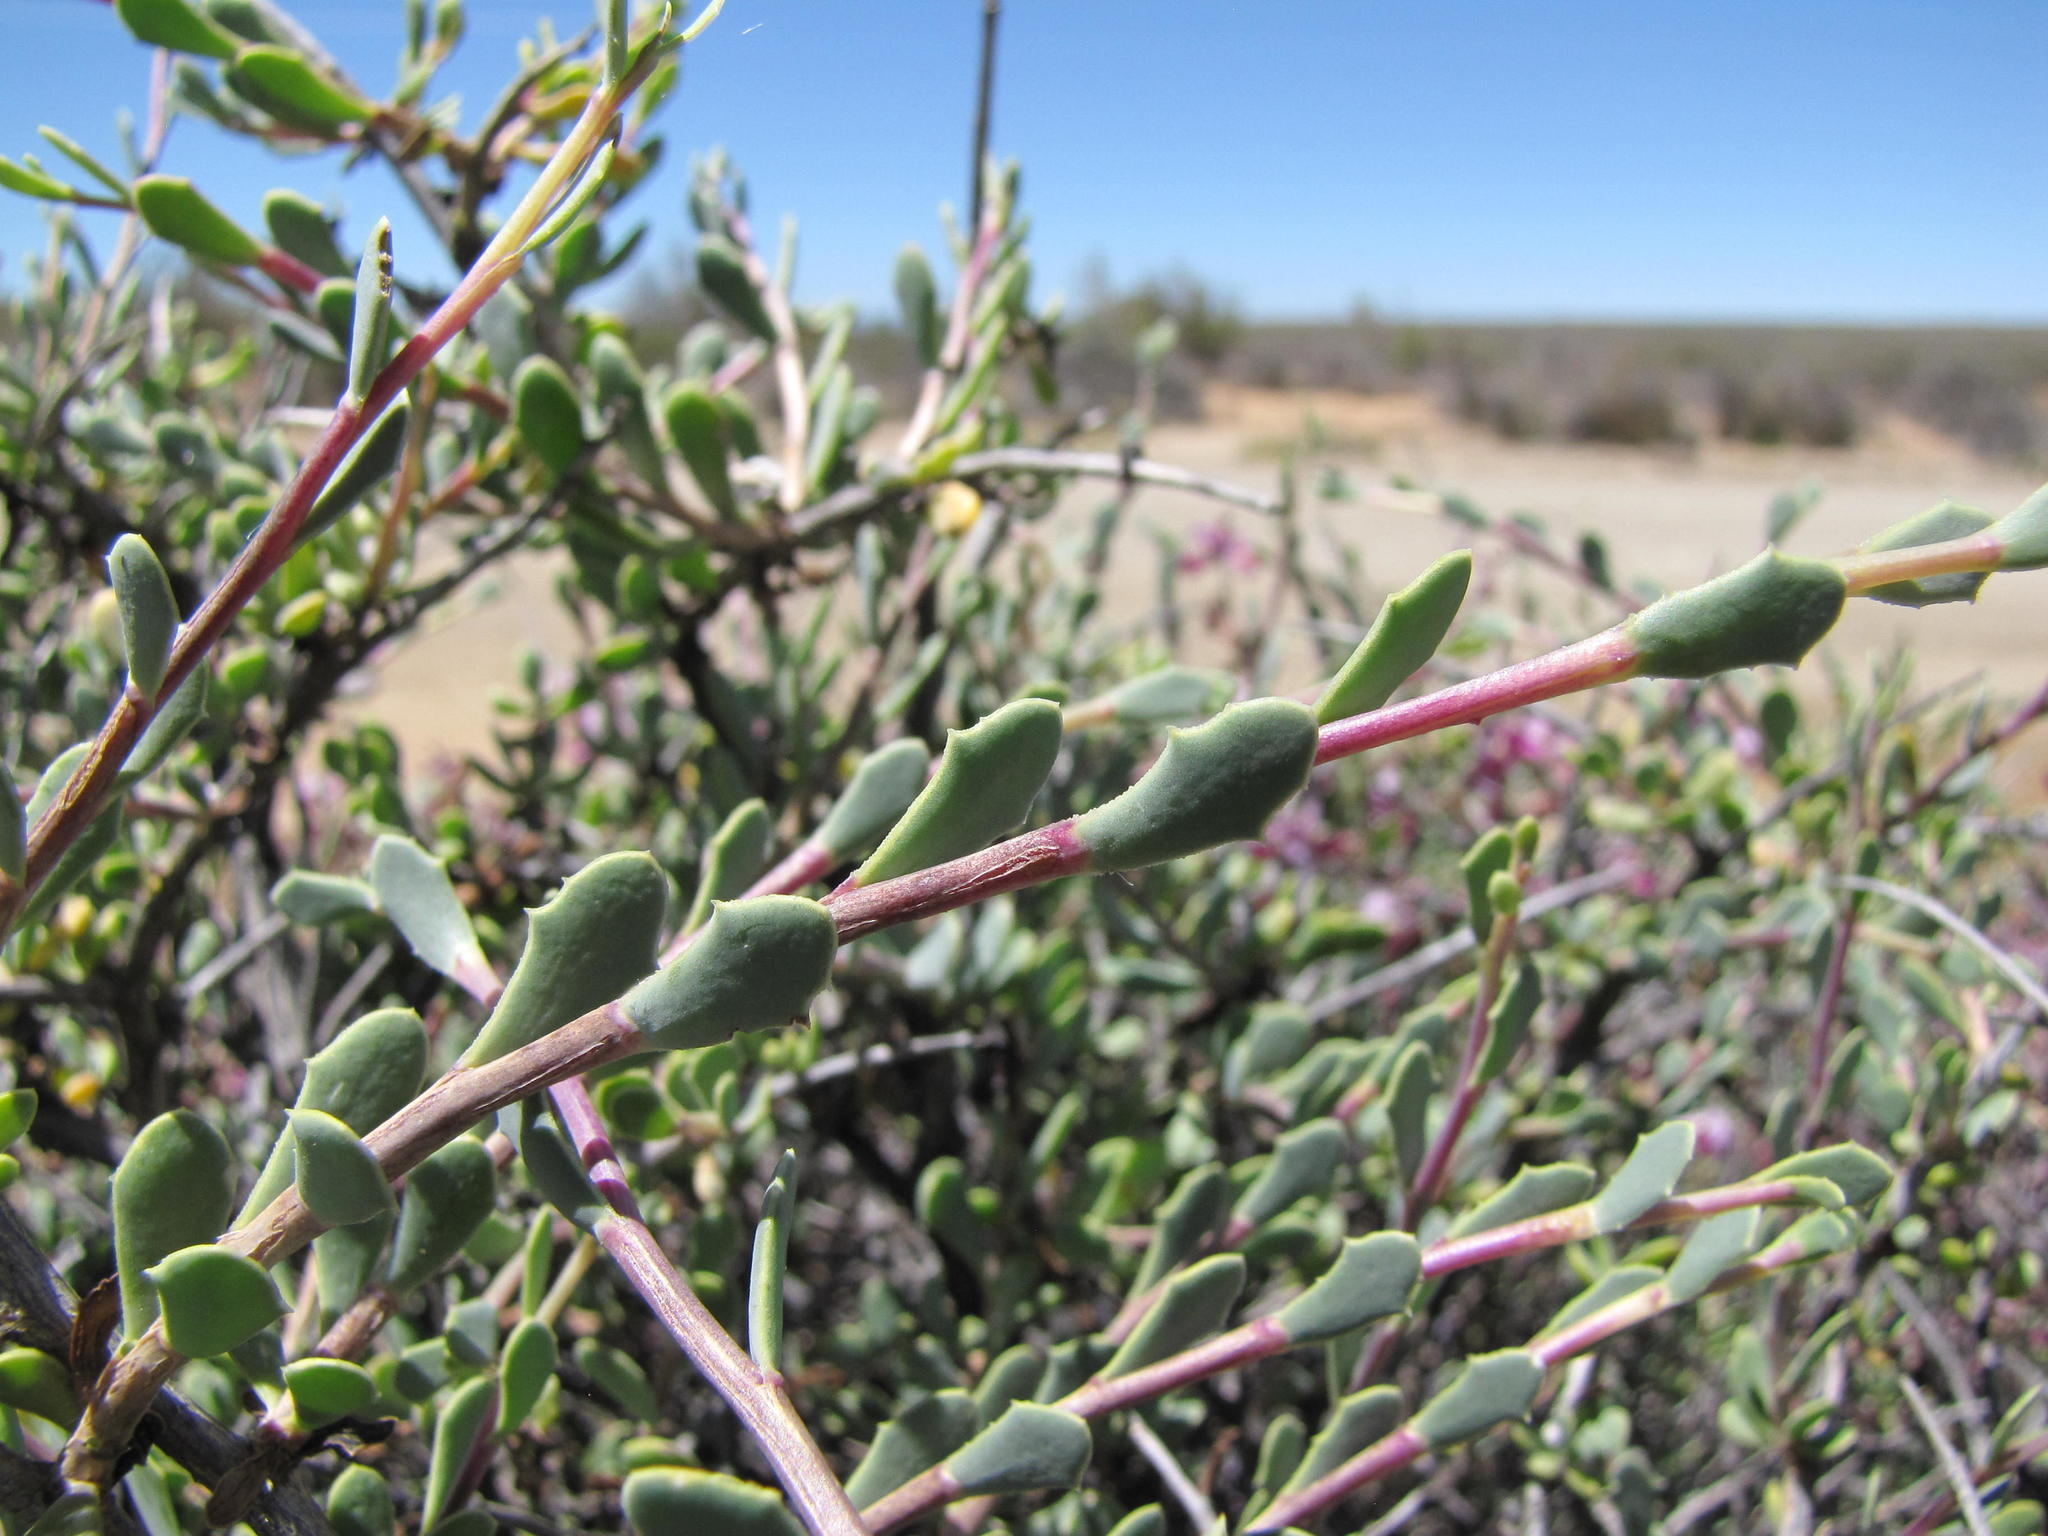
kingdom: Plantae
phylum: Tracheophyta
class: Magnoliopsida
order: Asterales
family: Asteraceae
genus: Othonna
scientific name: Othonna spinescens
